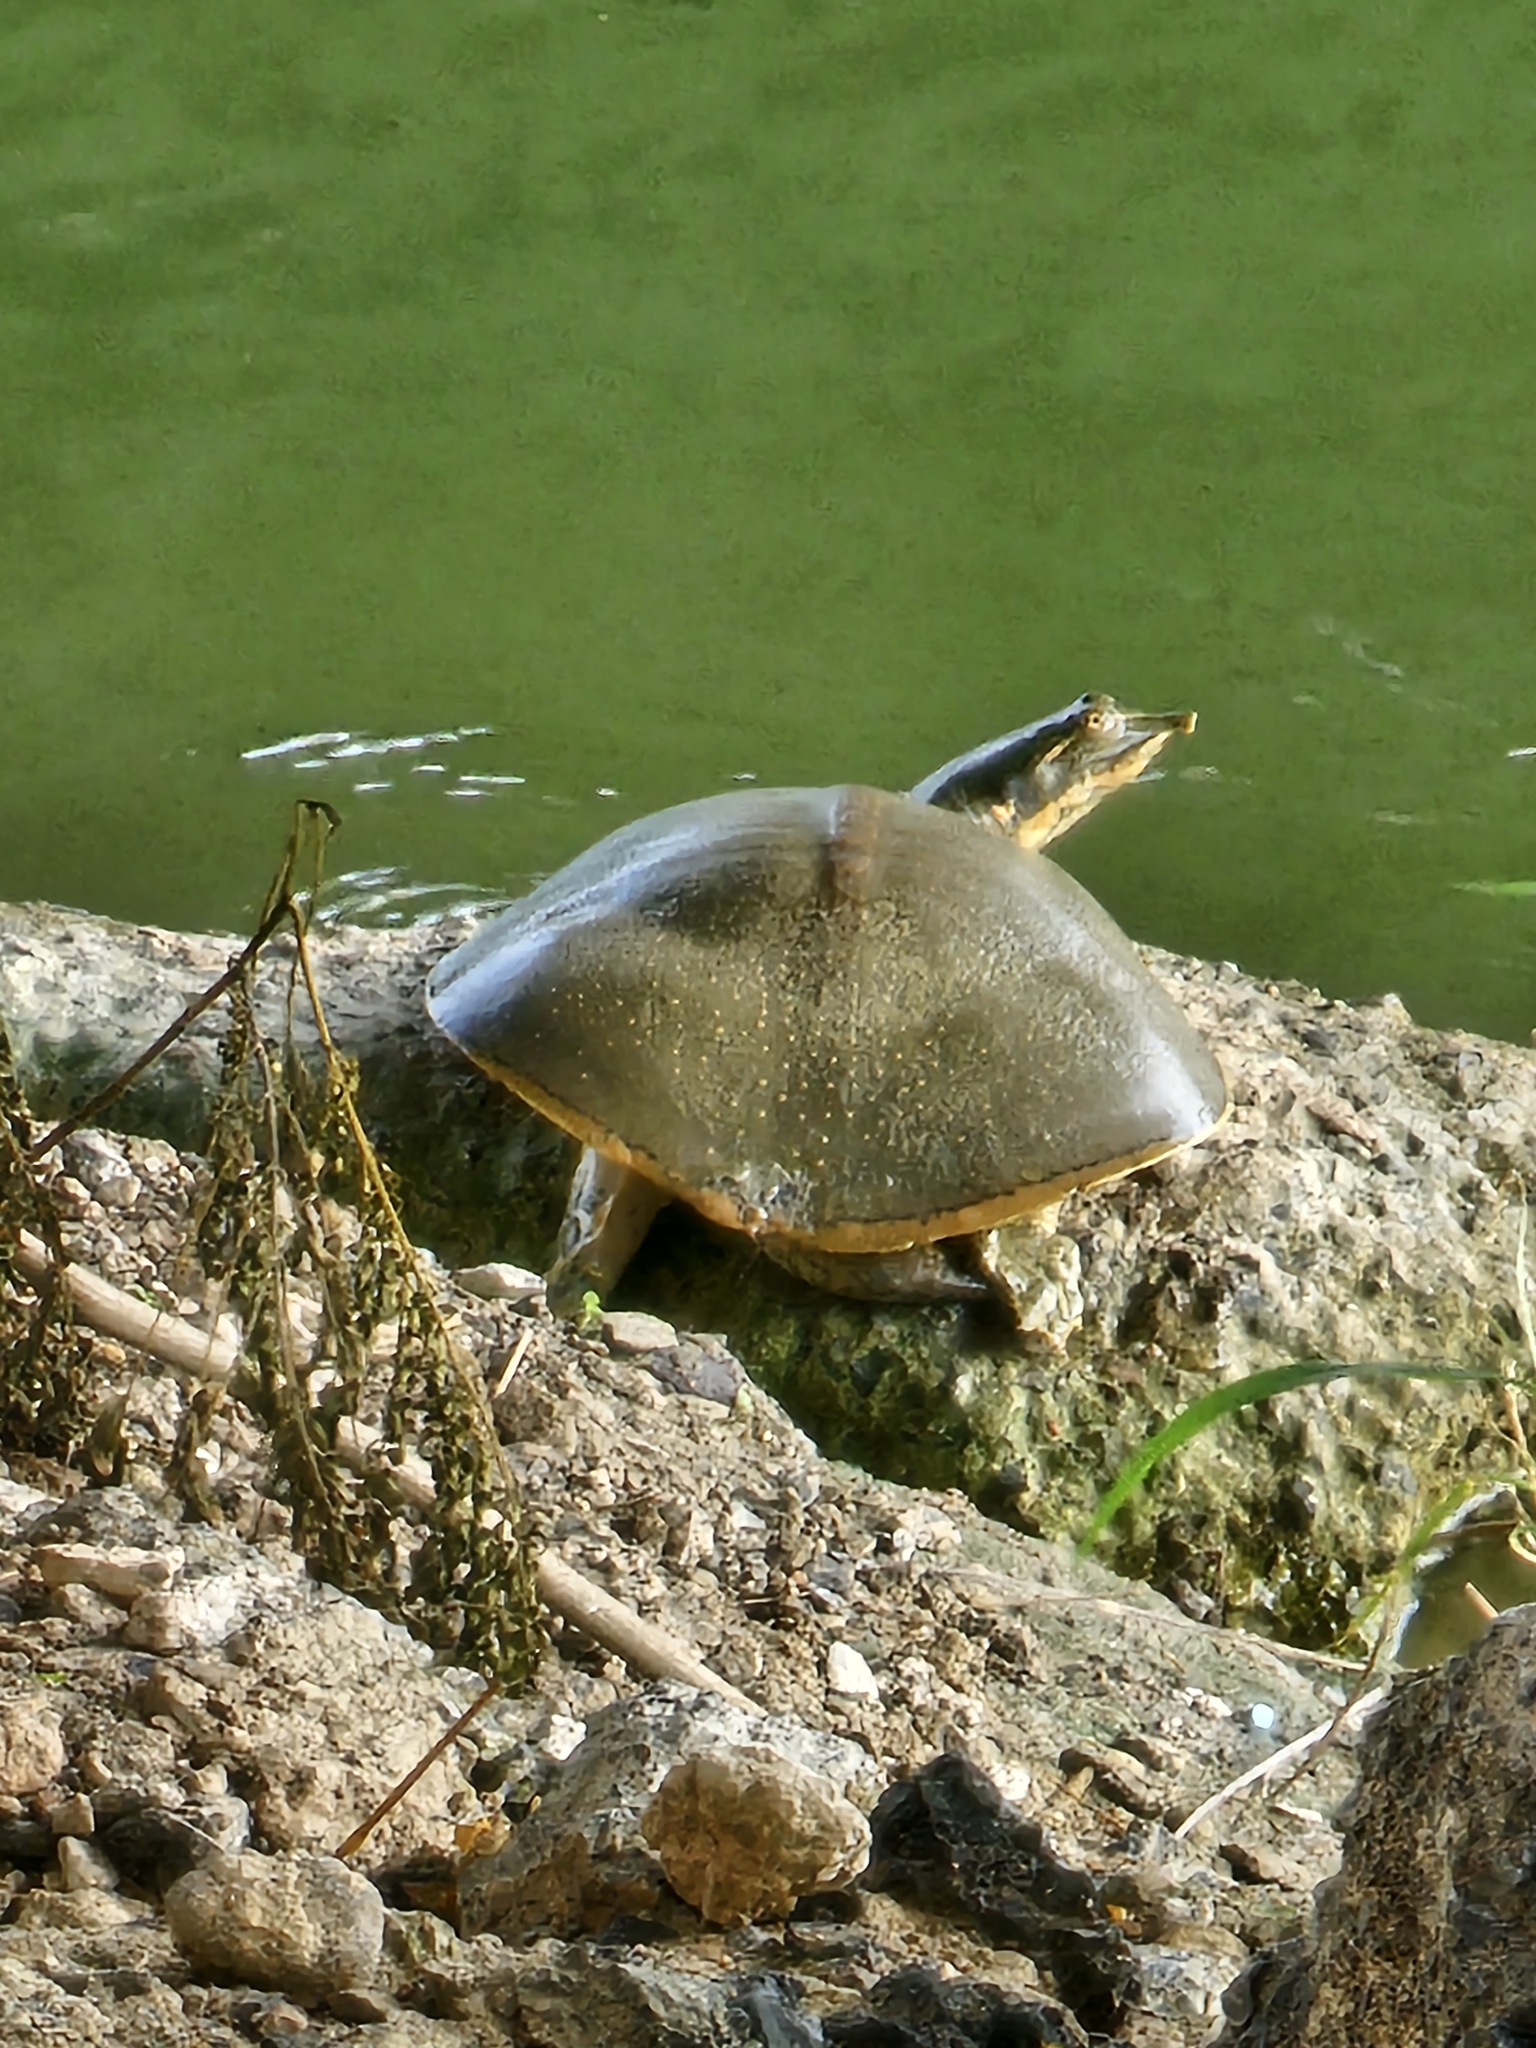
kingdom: Animalia
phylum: Chordata
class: Testudines
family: Trionychidae
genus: Apalone
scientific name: Apalone spinifera
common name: Spiny softshell turtle
